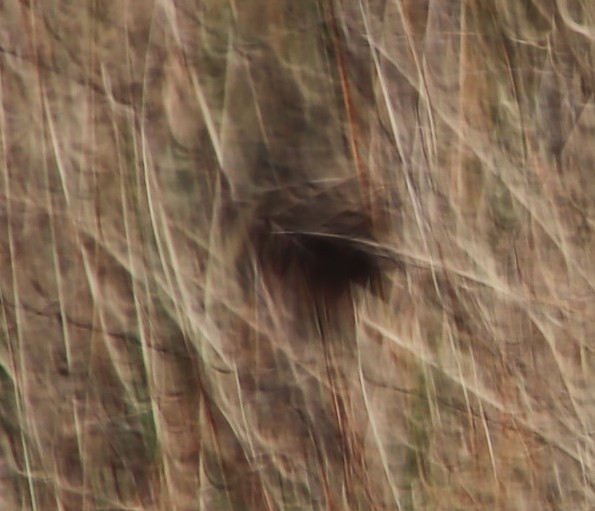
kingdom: Animalia
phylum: Arthropoda
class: Insecta
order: Lepidoptera
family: Nymphalidae
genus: Dira
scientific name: Dira clytus
